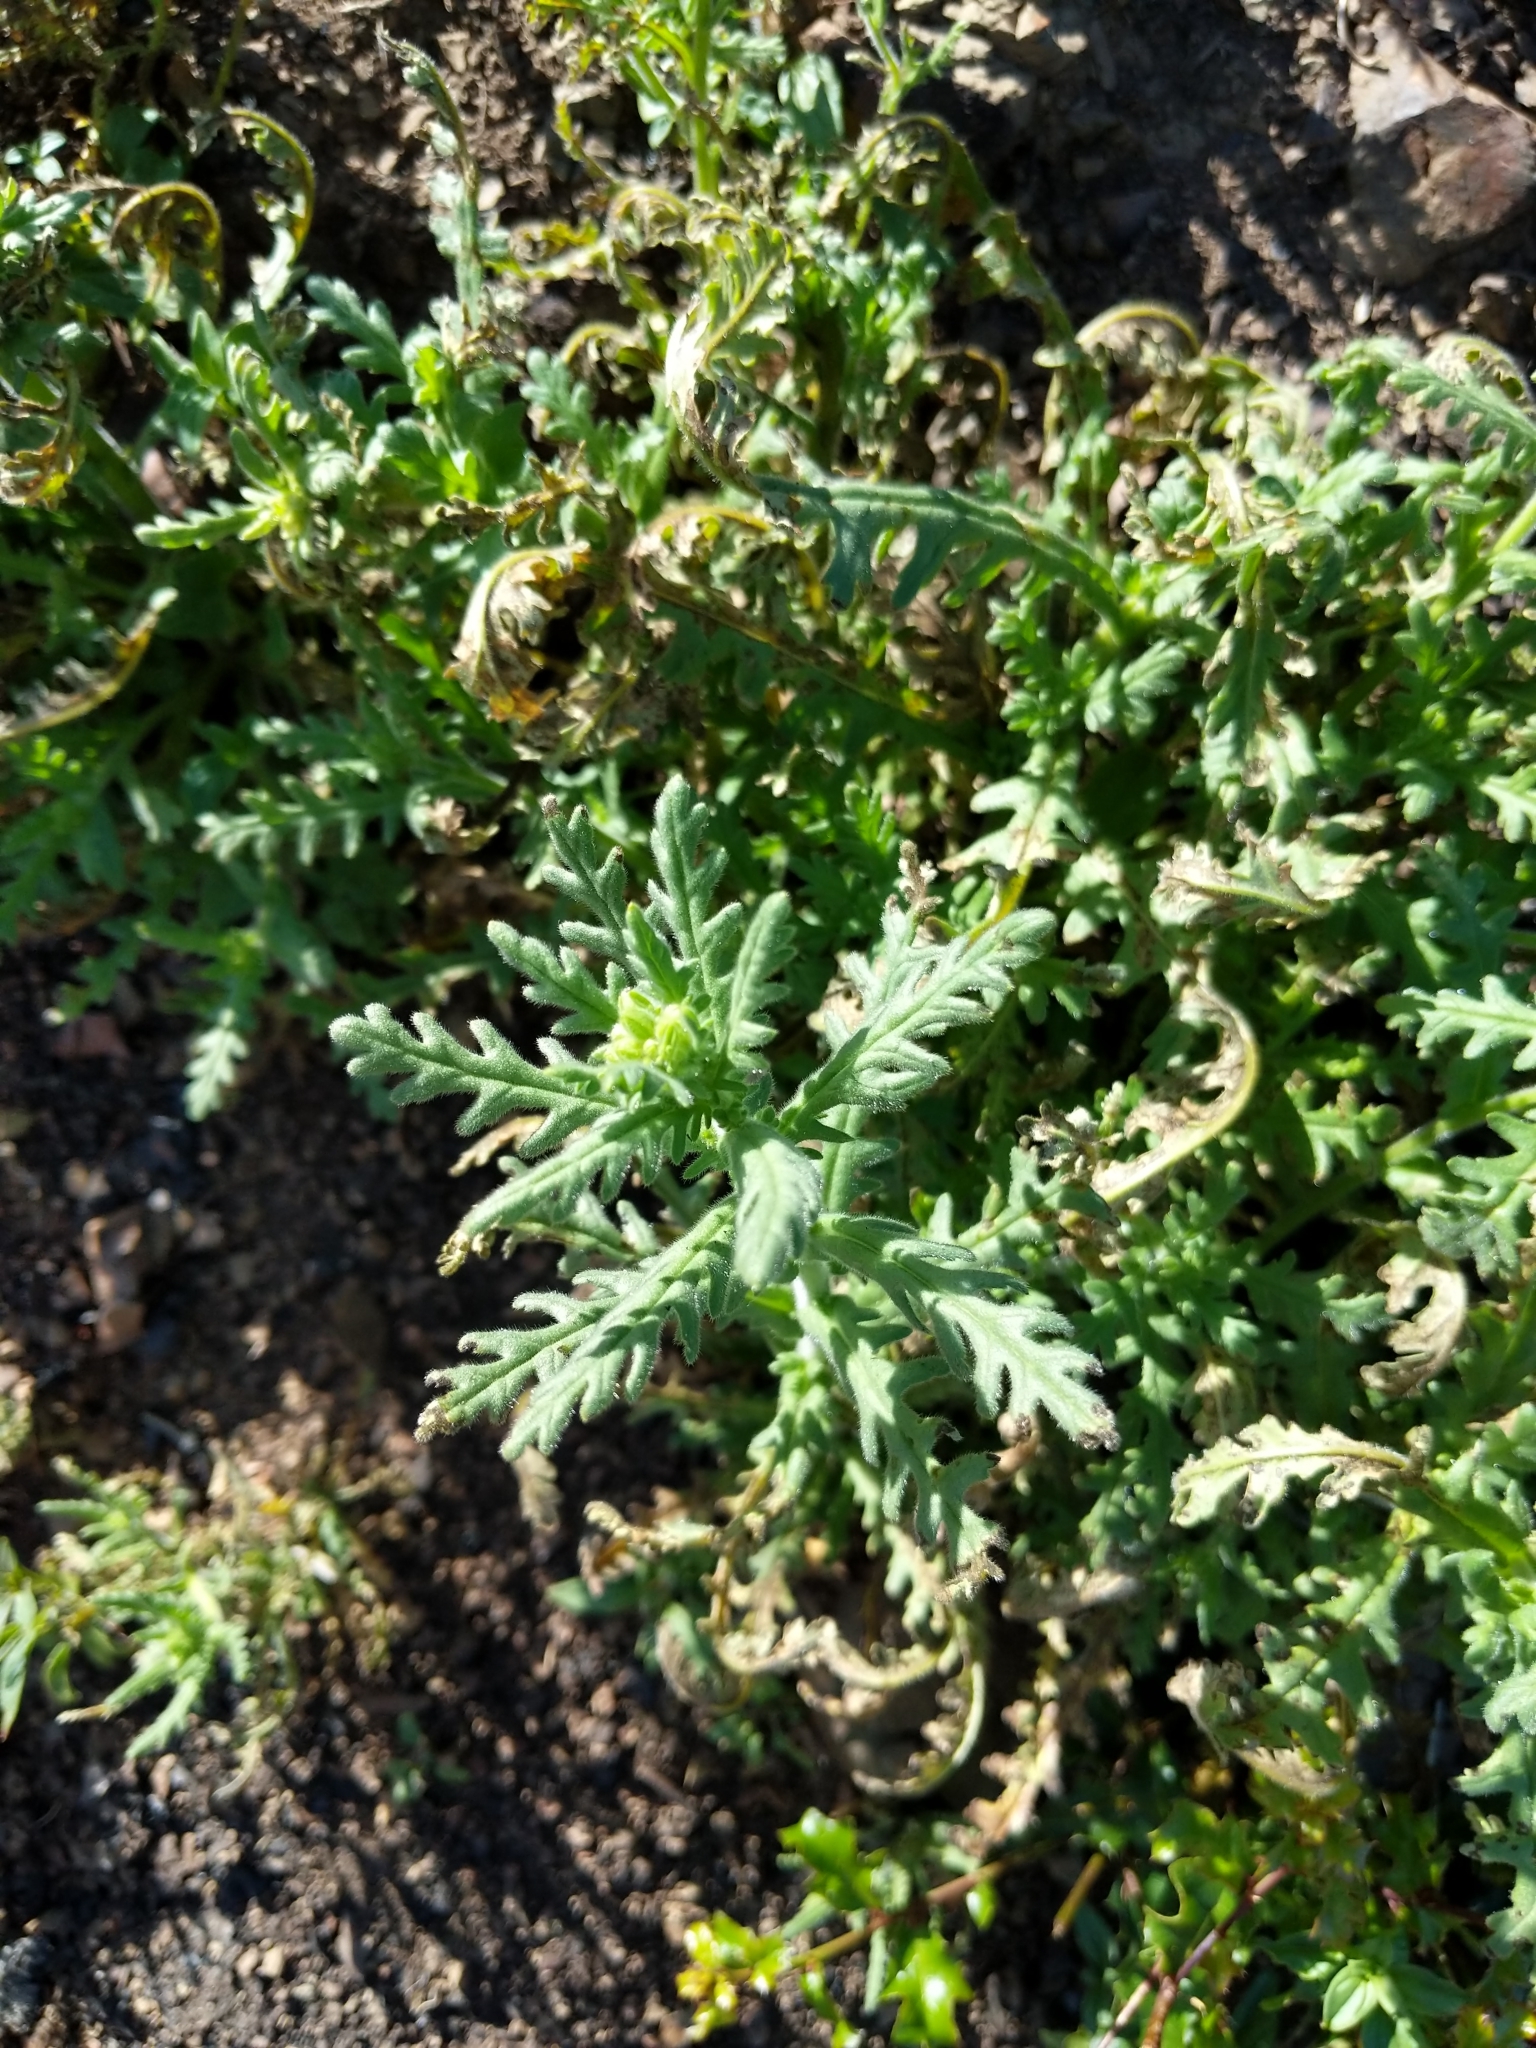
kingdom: Plantae
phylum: Tracheophyta
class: Magnoliopsida
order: Boraginales
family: Hydrophyllaceae
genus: Emmenanthe
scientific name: Emmenanthe penduliflora
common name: Whispering-bells
